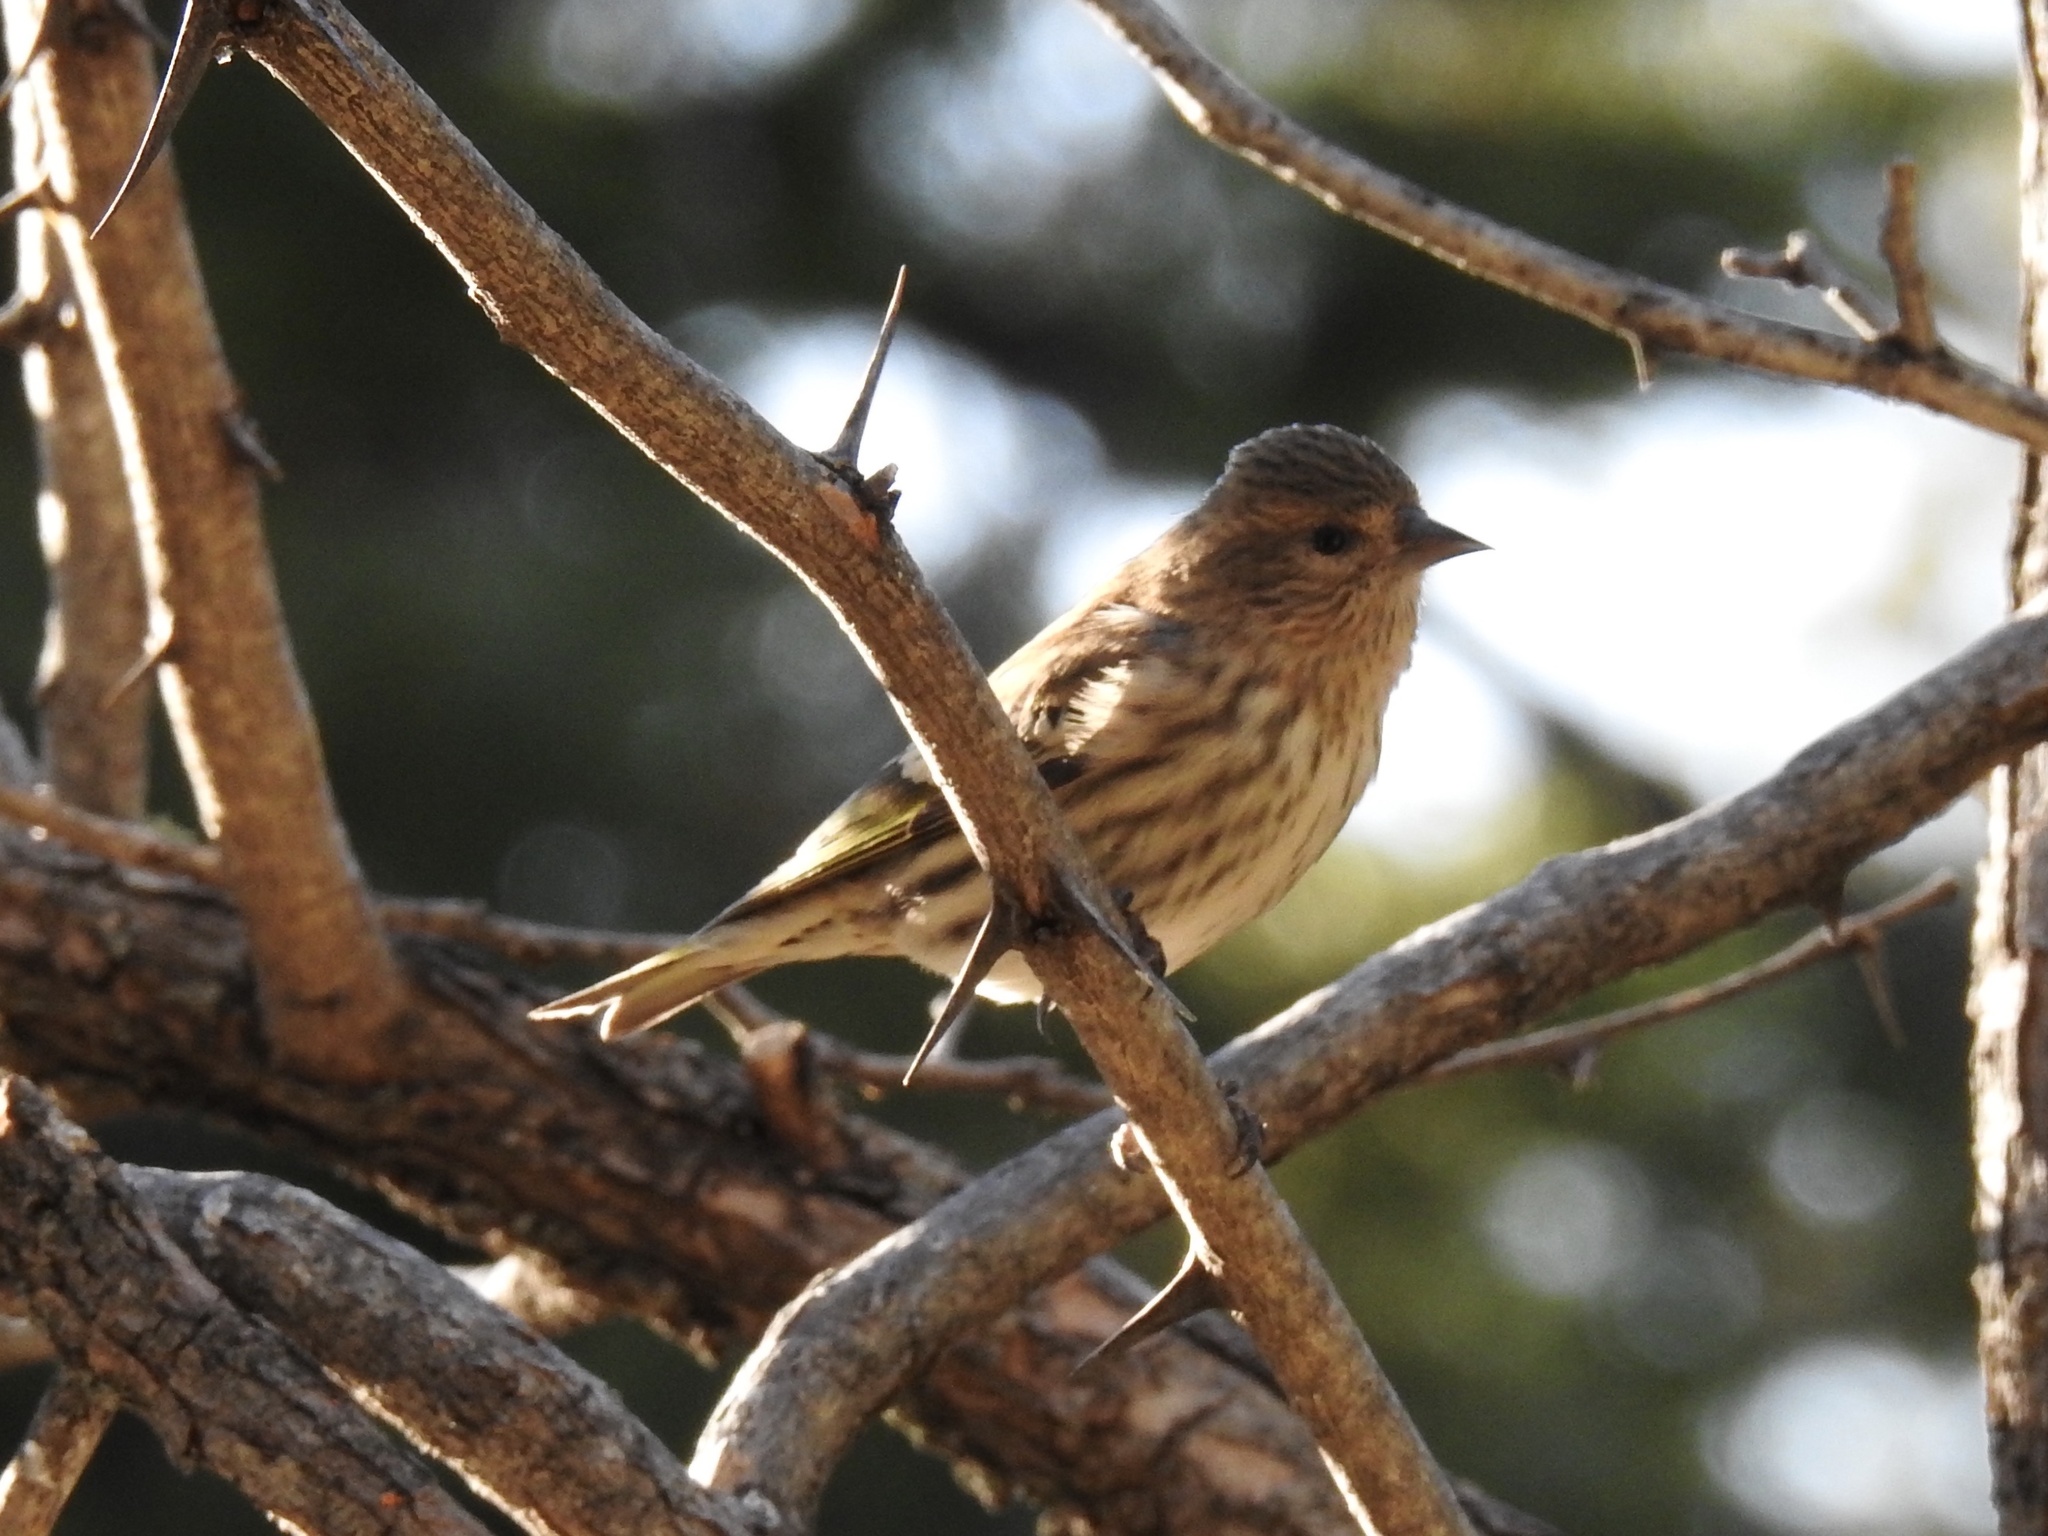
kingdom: Animalia
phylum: Chordata
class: Aves
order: Passeriformes
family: Fringillidae
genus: Spinus
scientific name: Spinus pinus
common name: Pine siskin
